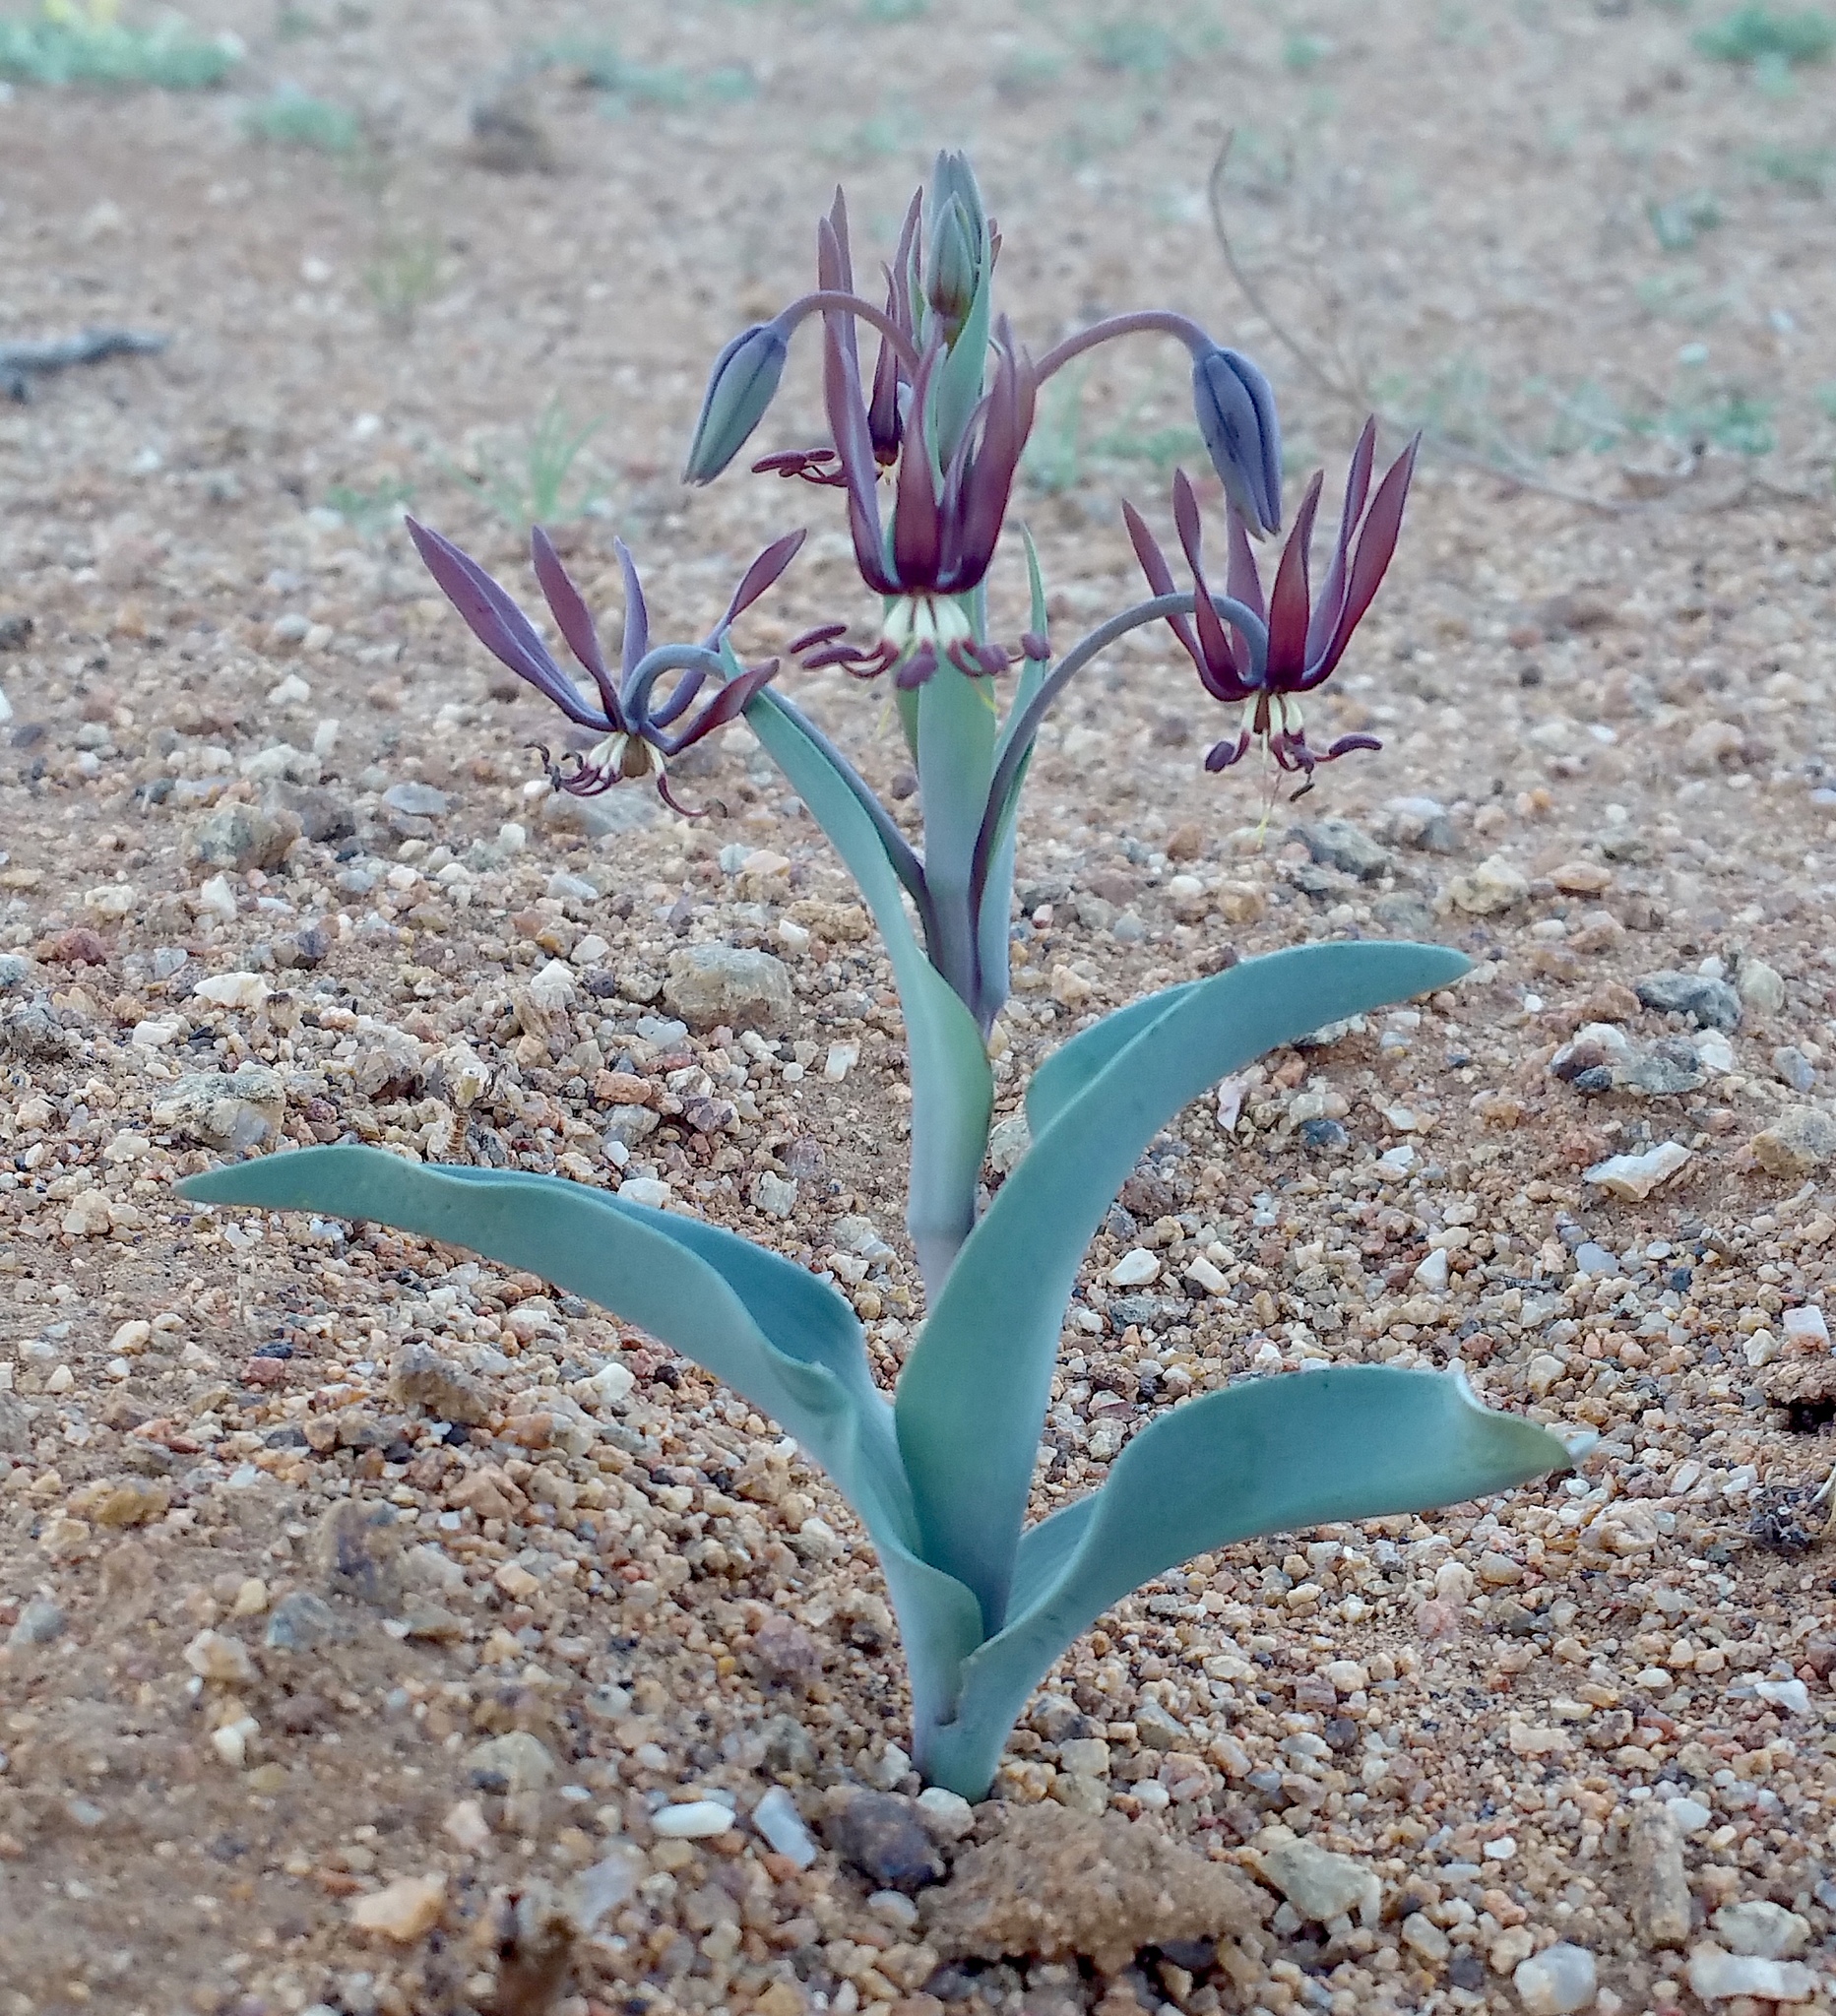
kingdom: Plantae
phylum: Tracheophyta
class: Liliopsida
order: Liliales
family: Colchicaceae
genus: Ornithoglossum
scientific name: Ornithoglossum vulgare
